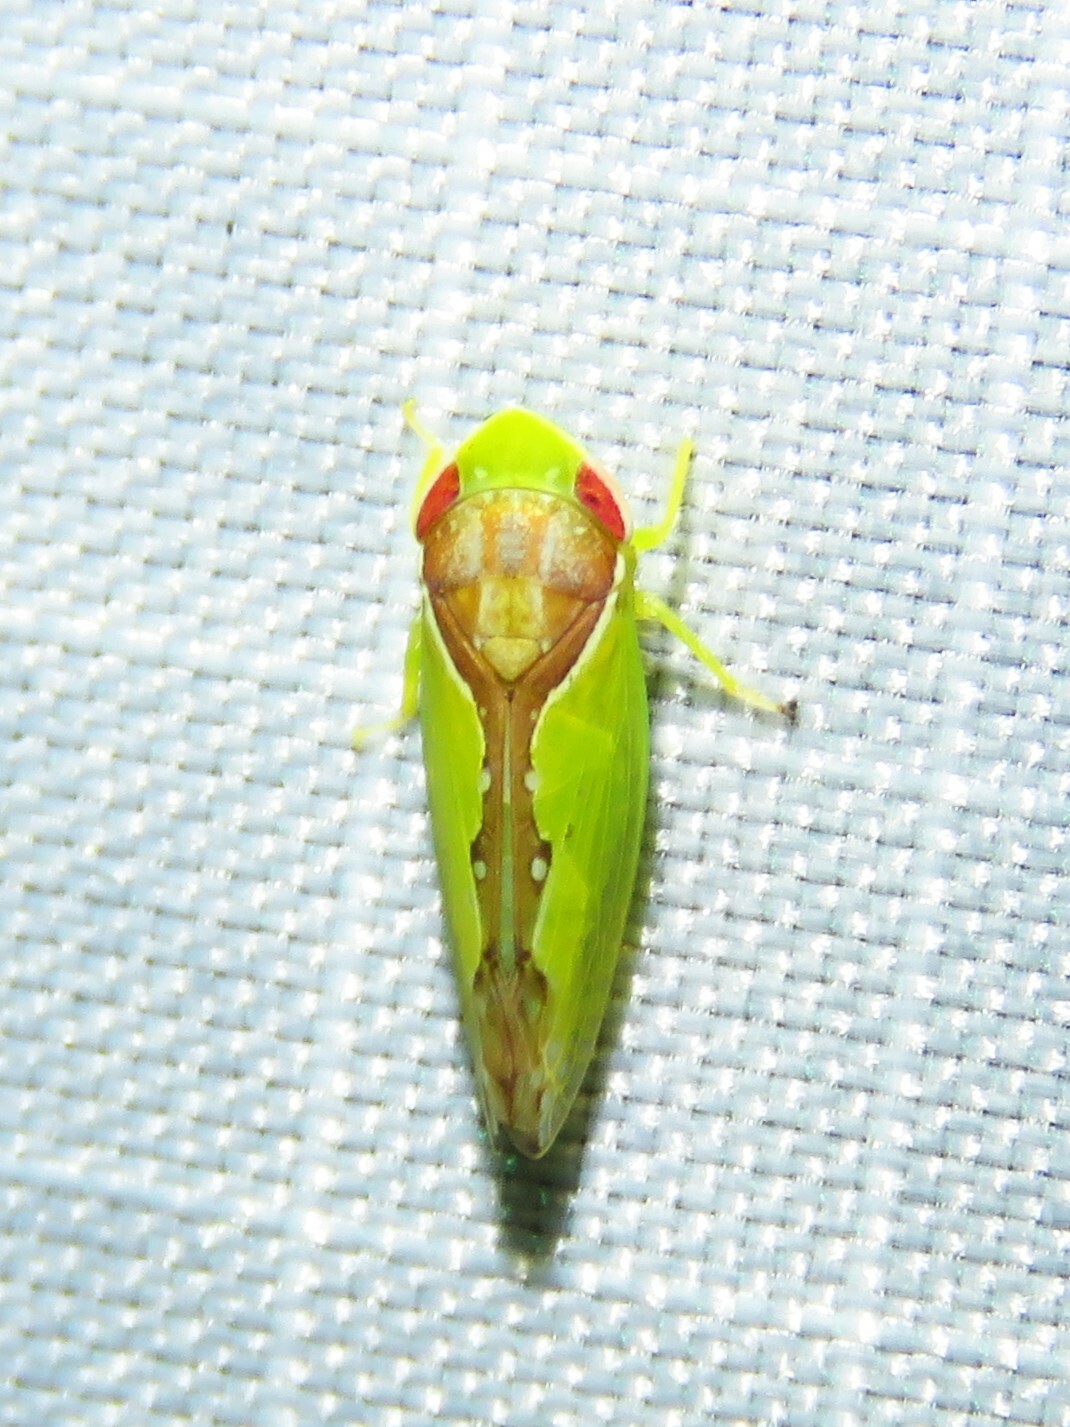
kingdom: Animalia
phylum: Arthropoda
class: Insecta
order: Hemiptera
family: Cicadellidae
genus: Omansobara ing
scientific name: Omansobara ing Omansobara palliolata
